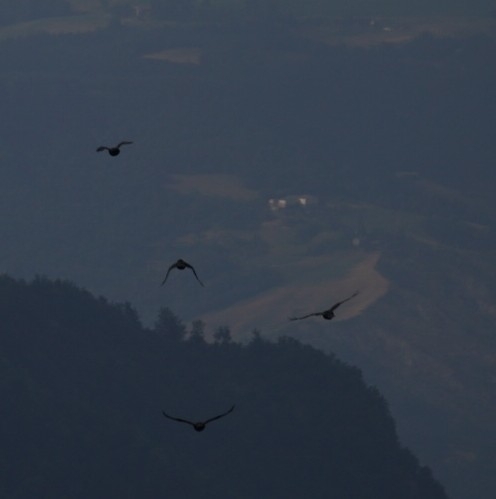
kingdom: Animalia
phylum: Chordata
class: Aves
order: Passeriformes
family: Corvidae
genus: Corvus
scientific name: Corvus corax
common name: Common raven
